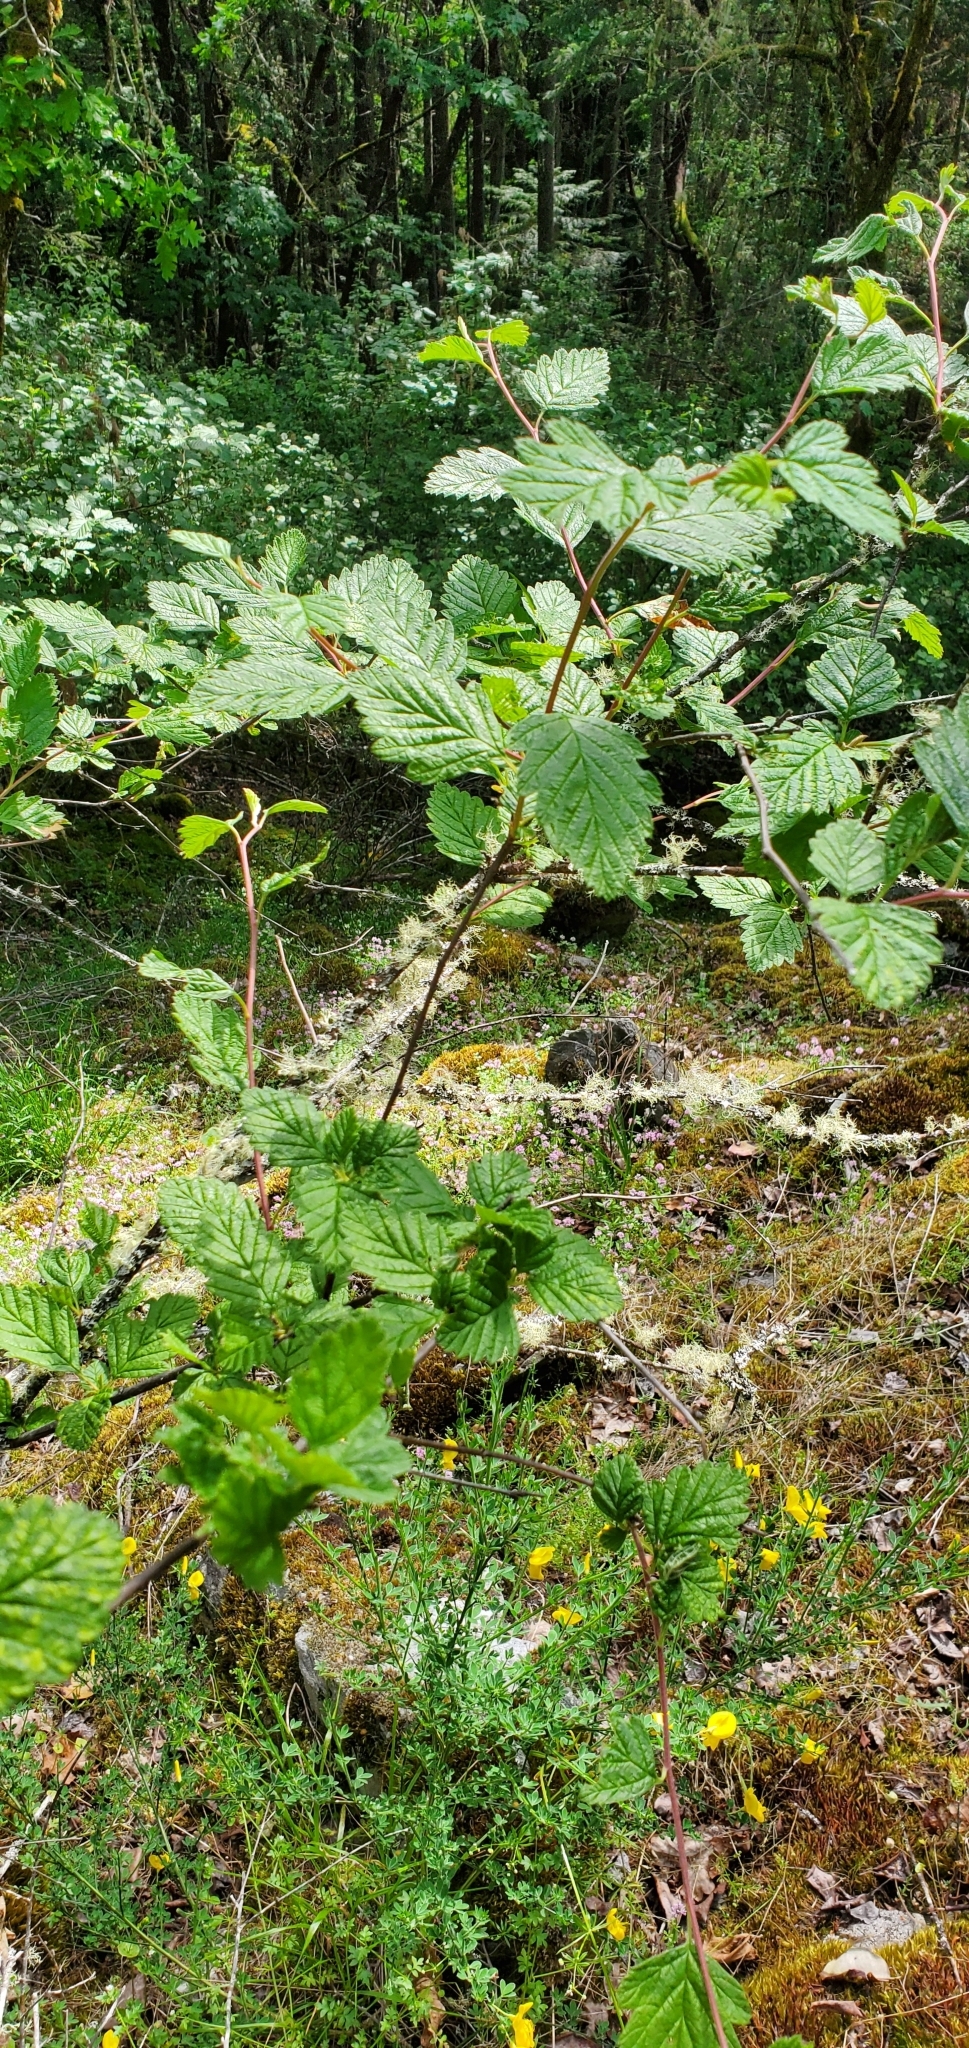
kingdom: Plantae
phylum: Tracheophyta
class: Magnoliopsida
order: Rosales
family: Rosaceae
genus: Holodiscus
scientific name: Holodiscus discolor
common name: Oceanspray
